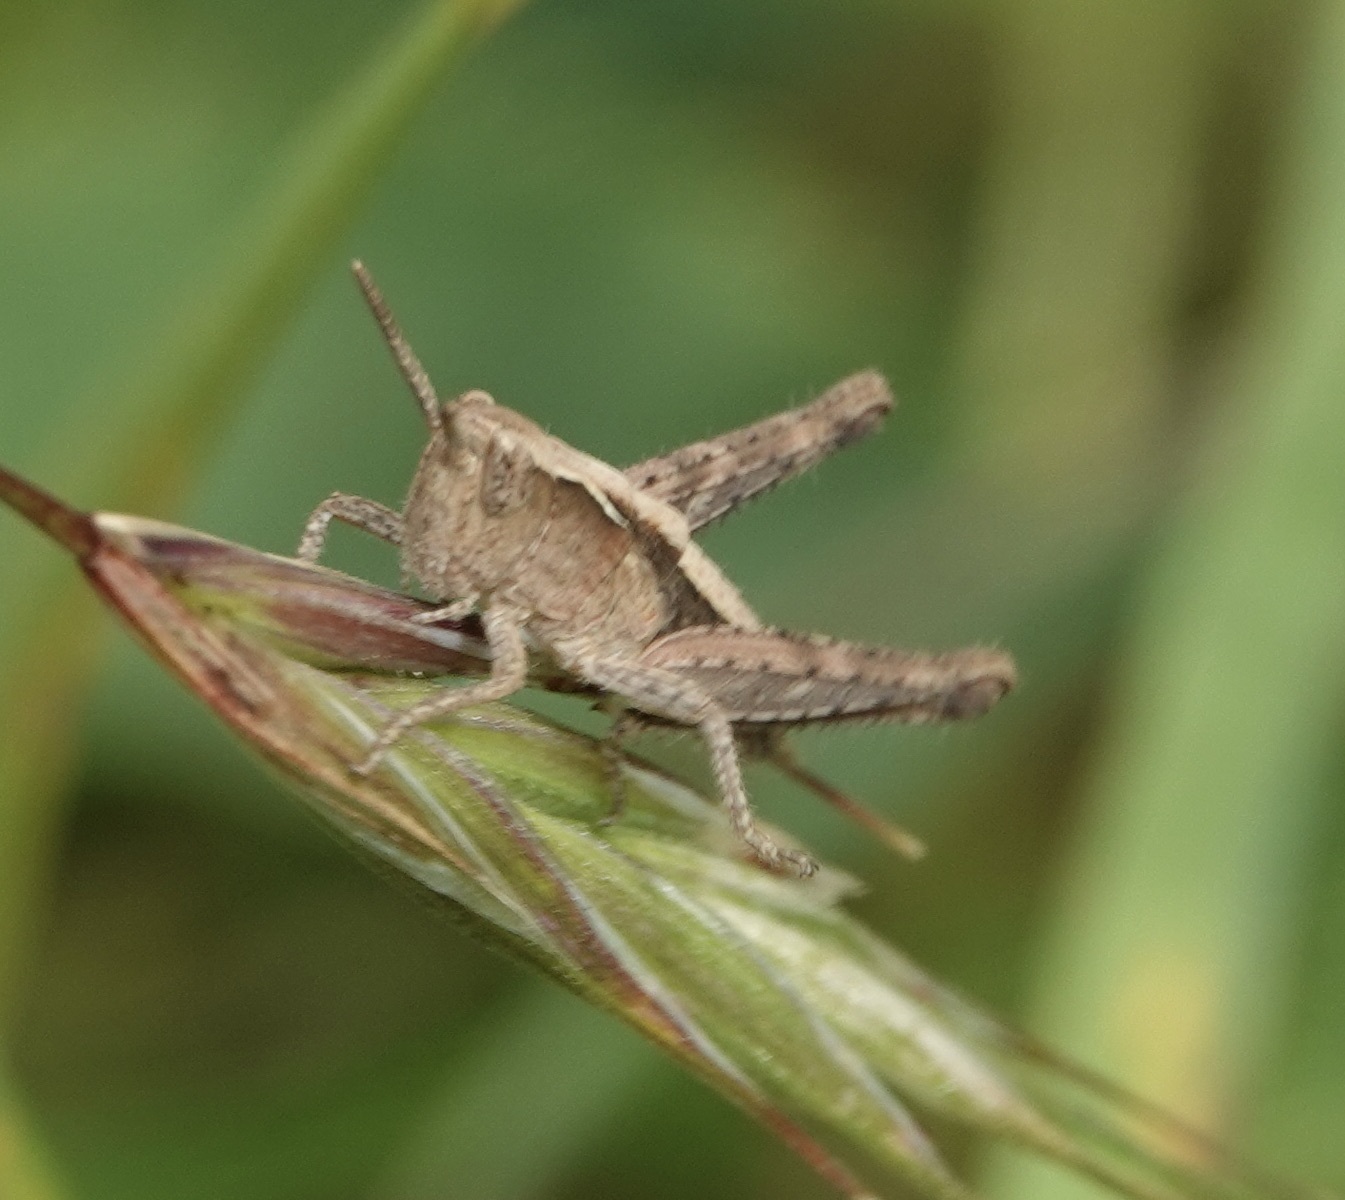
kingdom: Animalia
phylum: Arthropoda
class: Insecta
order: Orthoptera
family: Acrididae
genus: Chorthippus
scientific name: Chorthippus brunneus
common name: Field grasshopper
